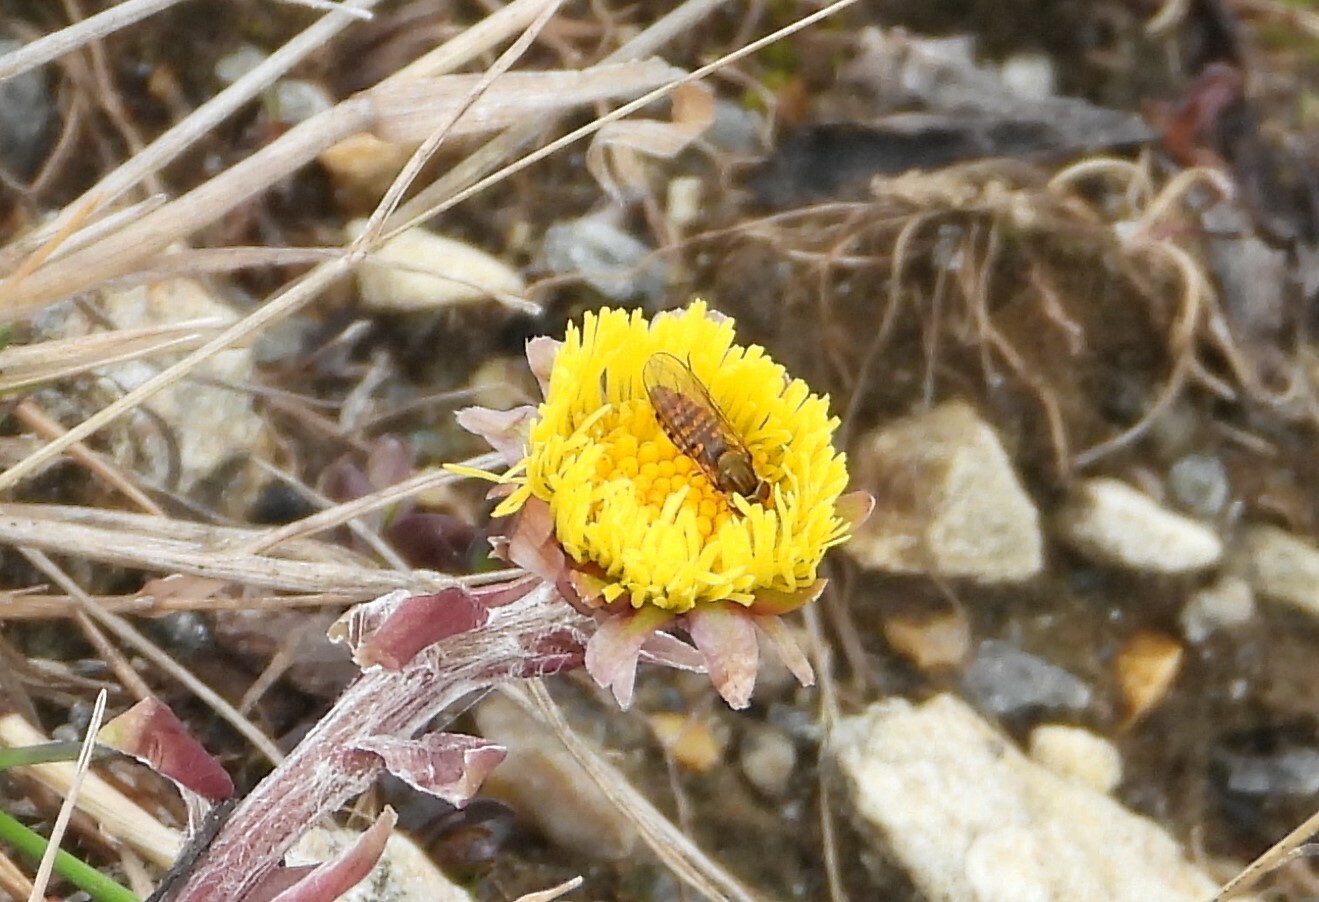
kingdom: Animalia
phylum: Arthropoda
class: Insecta
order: Diptera
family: Syrphidae
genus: Episyrphus
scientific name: Episyrphus balteatus
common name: Marmalade hoverfly
